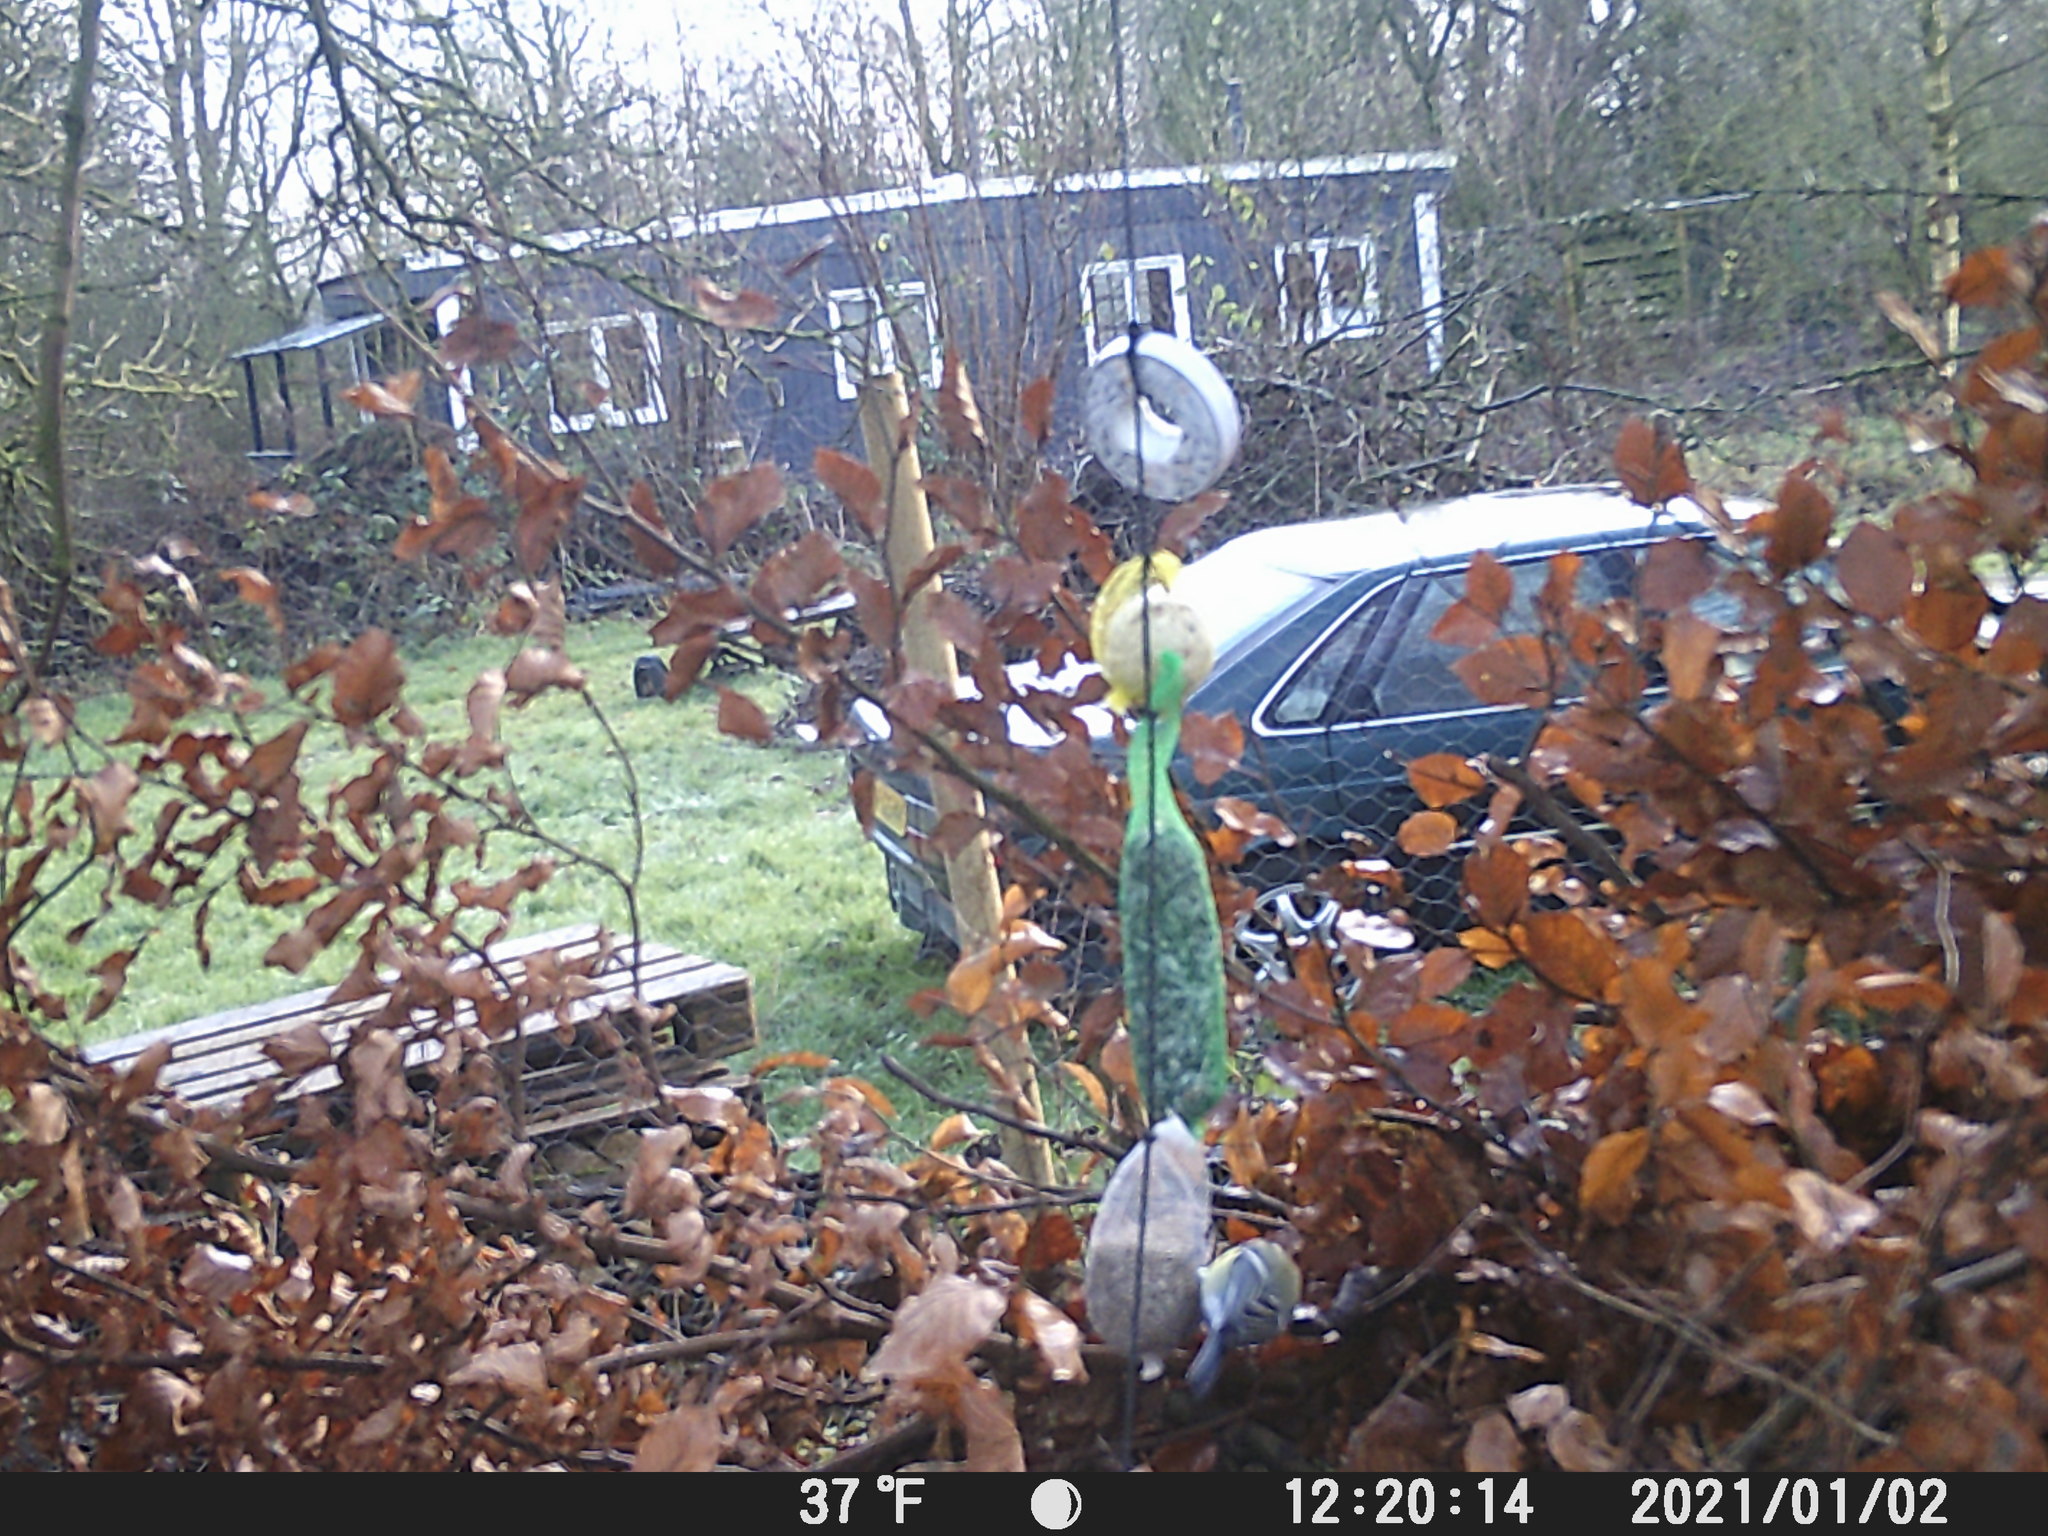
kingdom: Animalia
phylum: Chordata
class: Aves
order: Passeriformes
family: Paridae
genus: Parus
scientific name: Parus major
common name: Great tit
